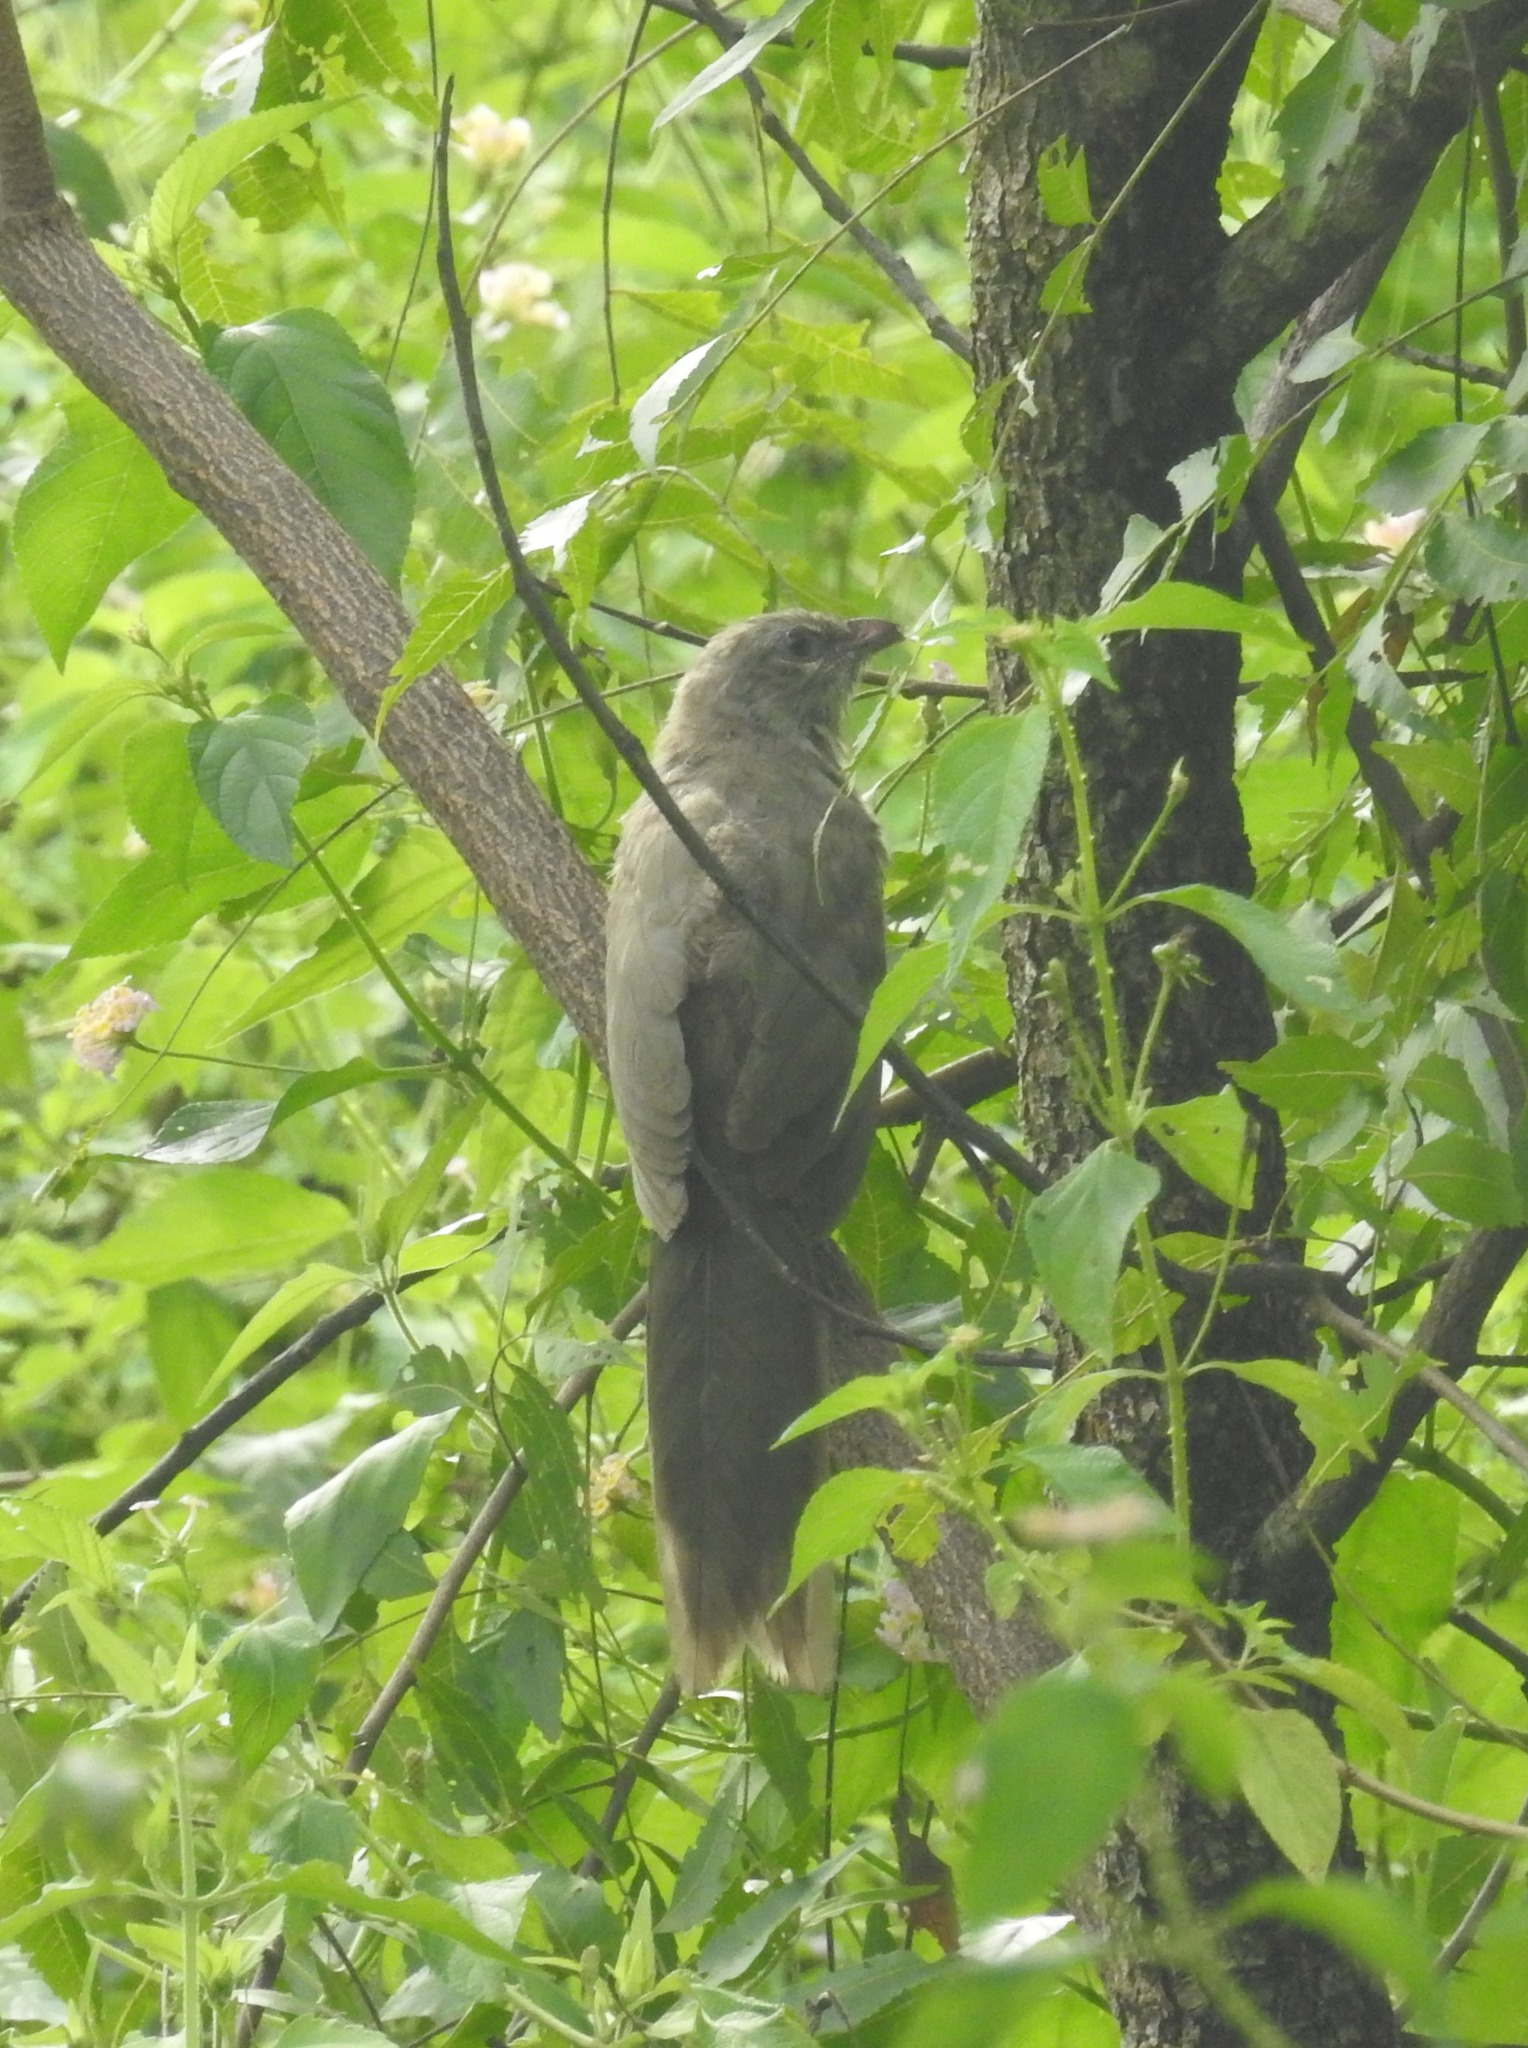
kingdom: Animalia
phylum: Chordata
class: Aves
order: Cuculiformes
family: Cuculidae
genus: Taccocua
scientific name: Taccocua leschenaultii
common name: Sirkeer malkoha
